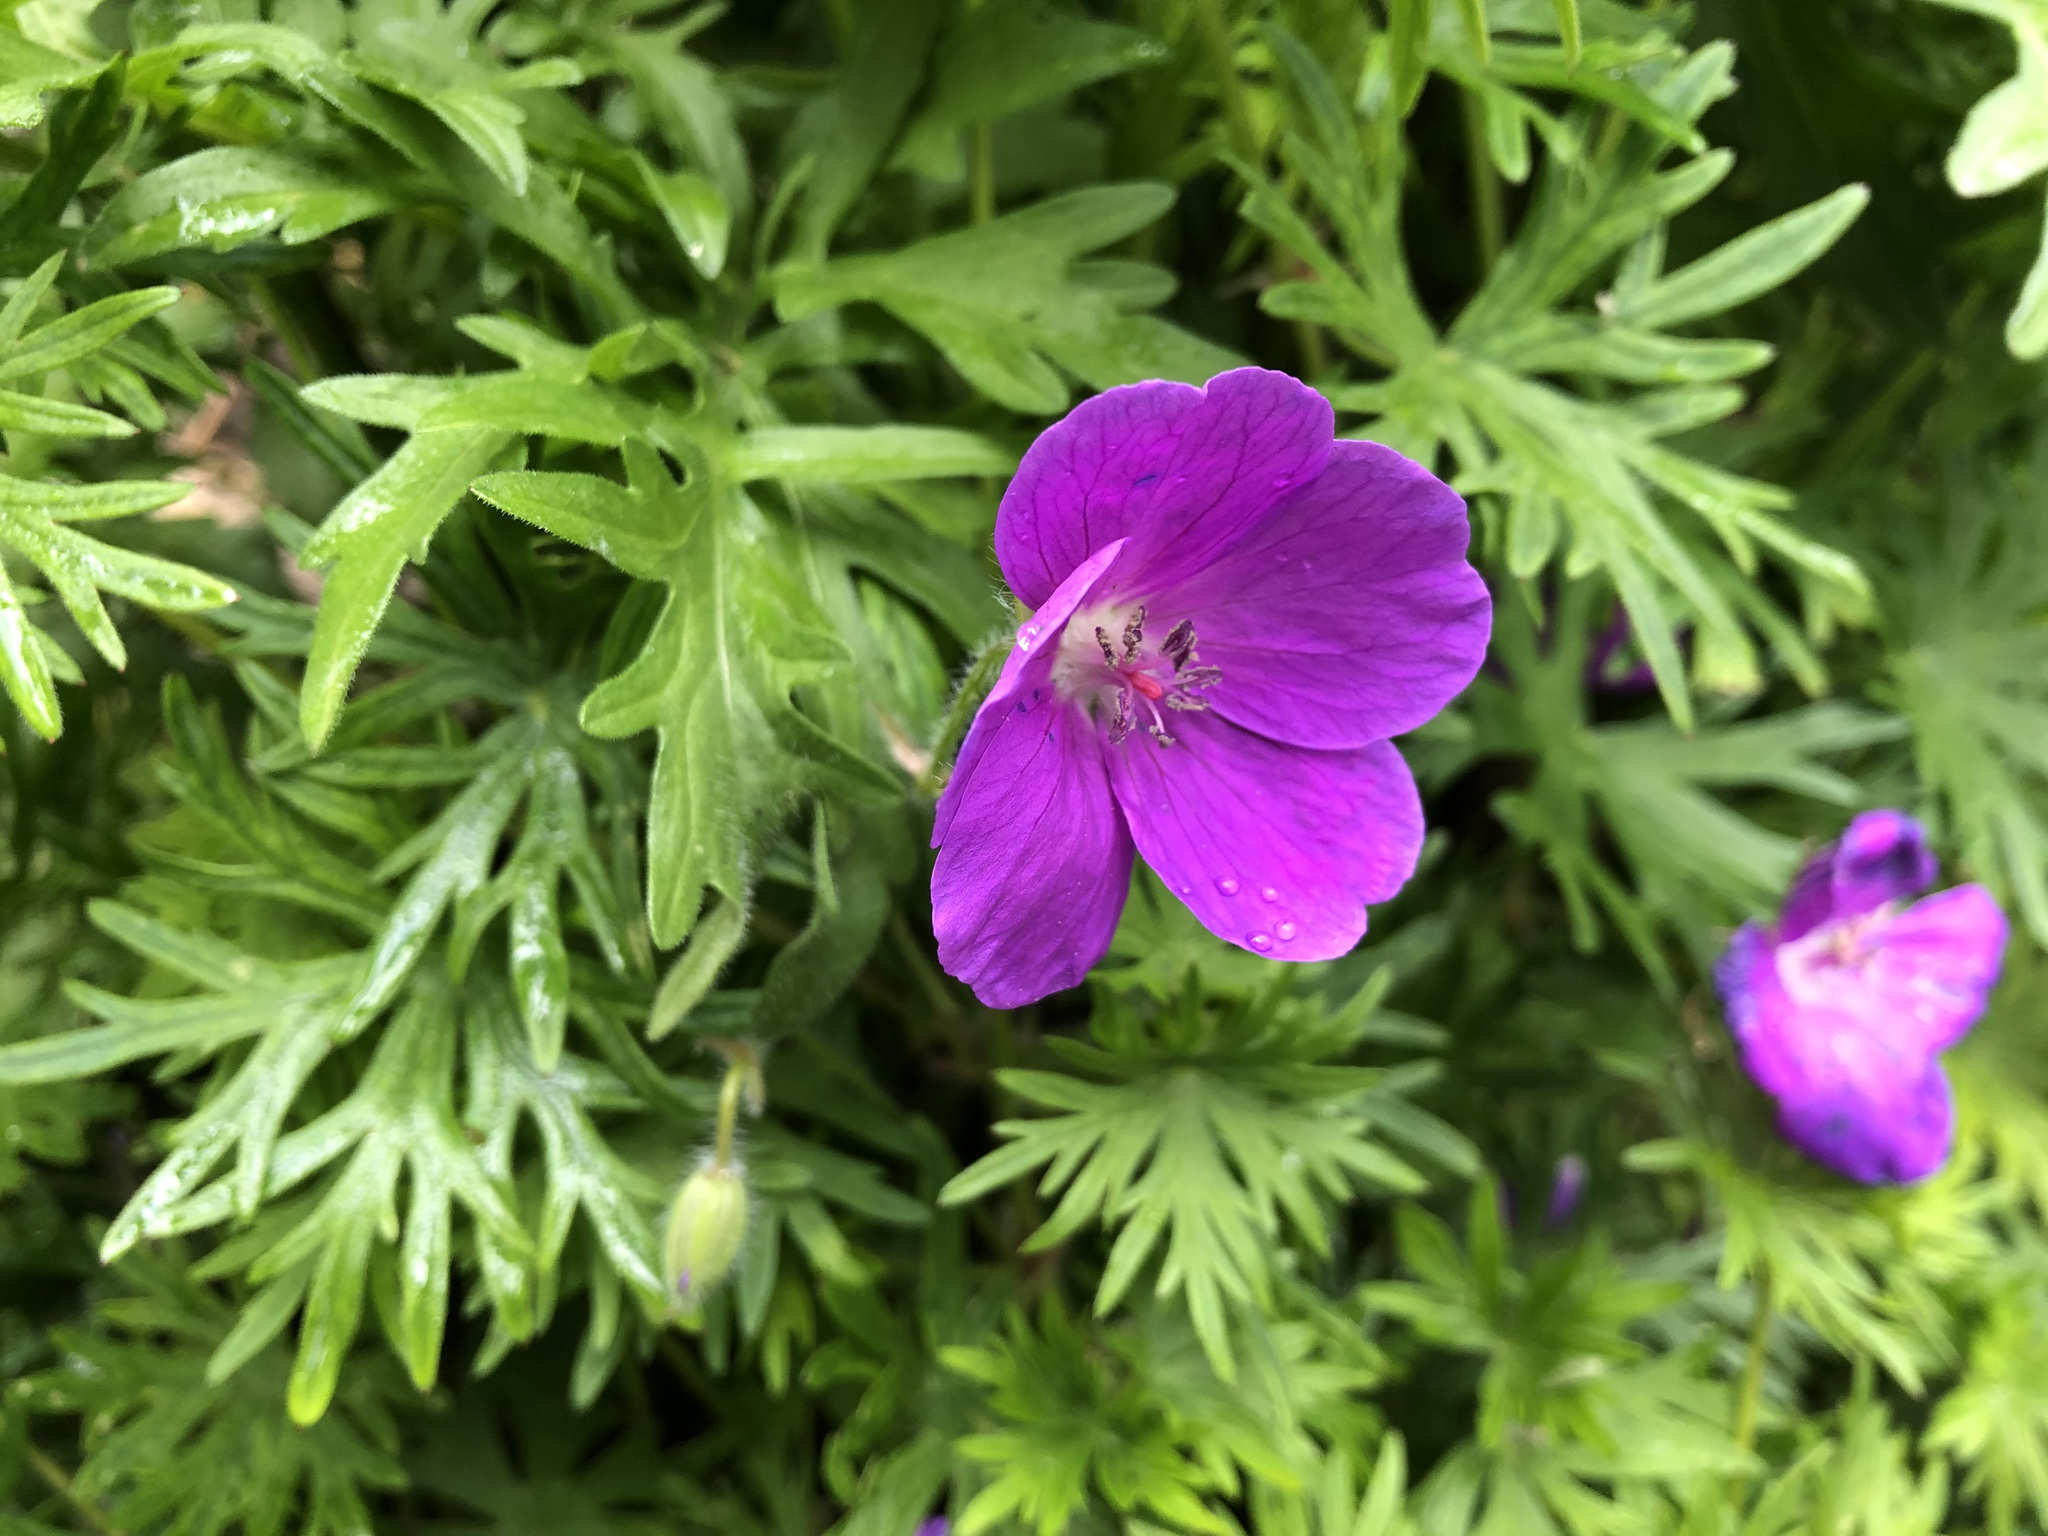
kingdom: Plantae
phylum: Tracheophyta
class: Magnoliopsida
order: Geraniales
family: Geraniaceae
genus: Geranium
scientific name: Geranium sanguineum
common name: Bloody crane's-bill
